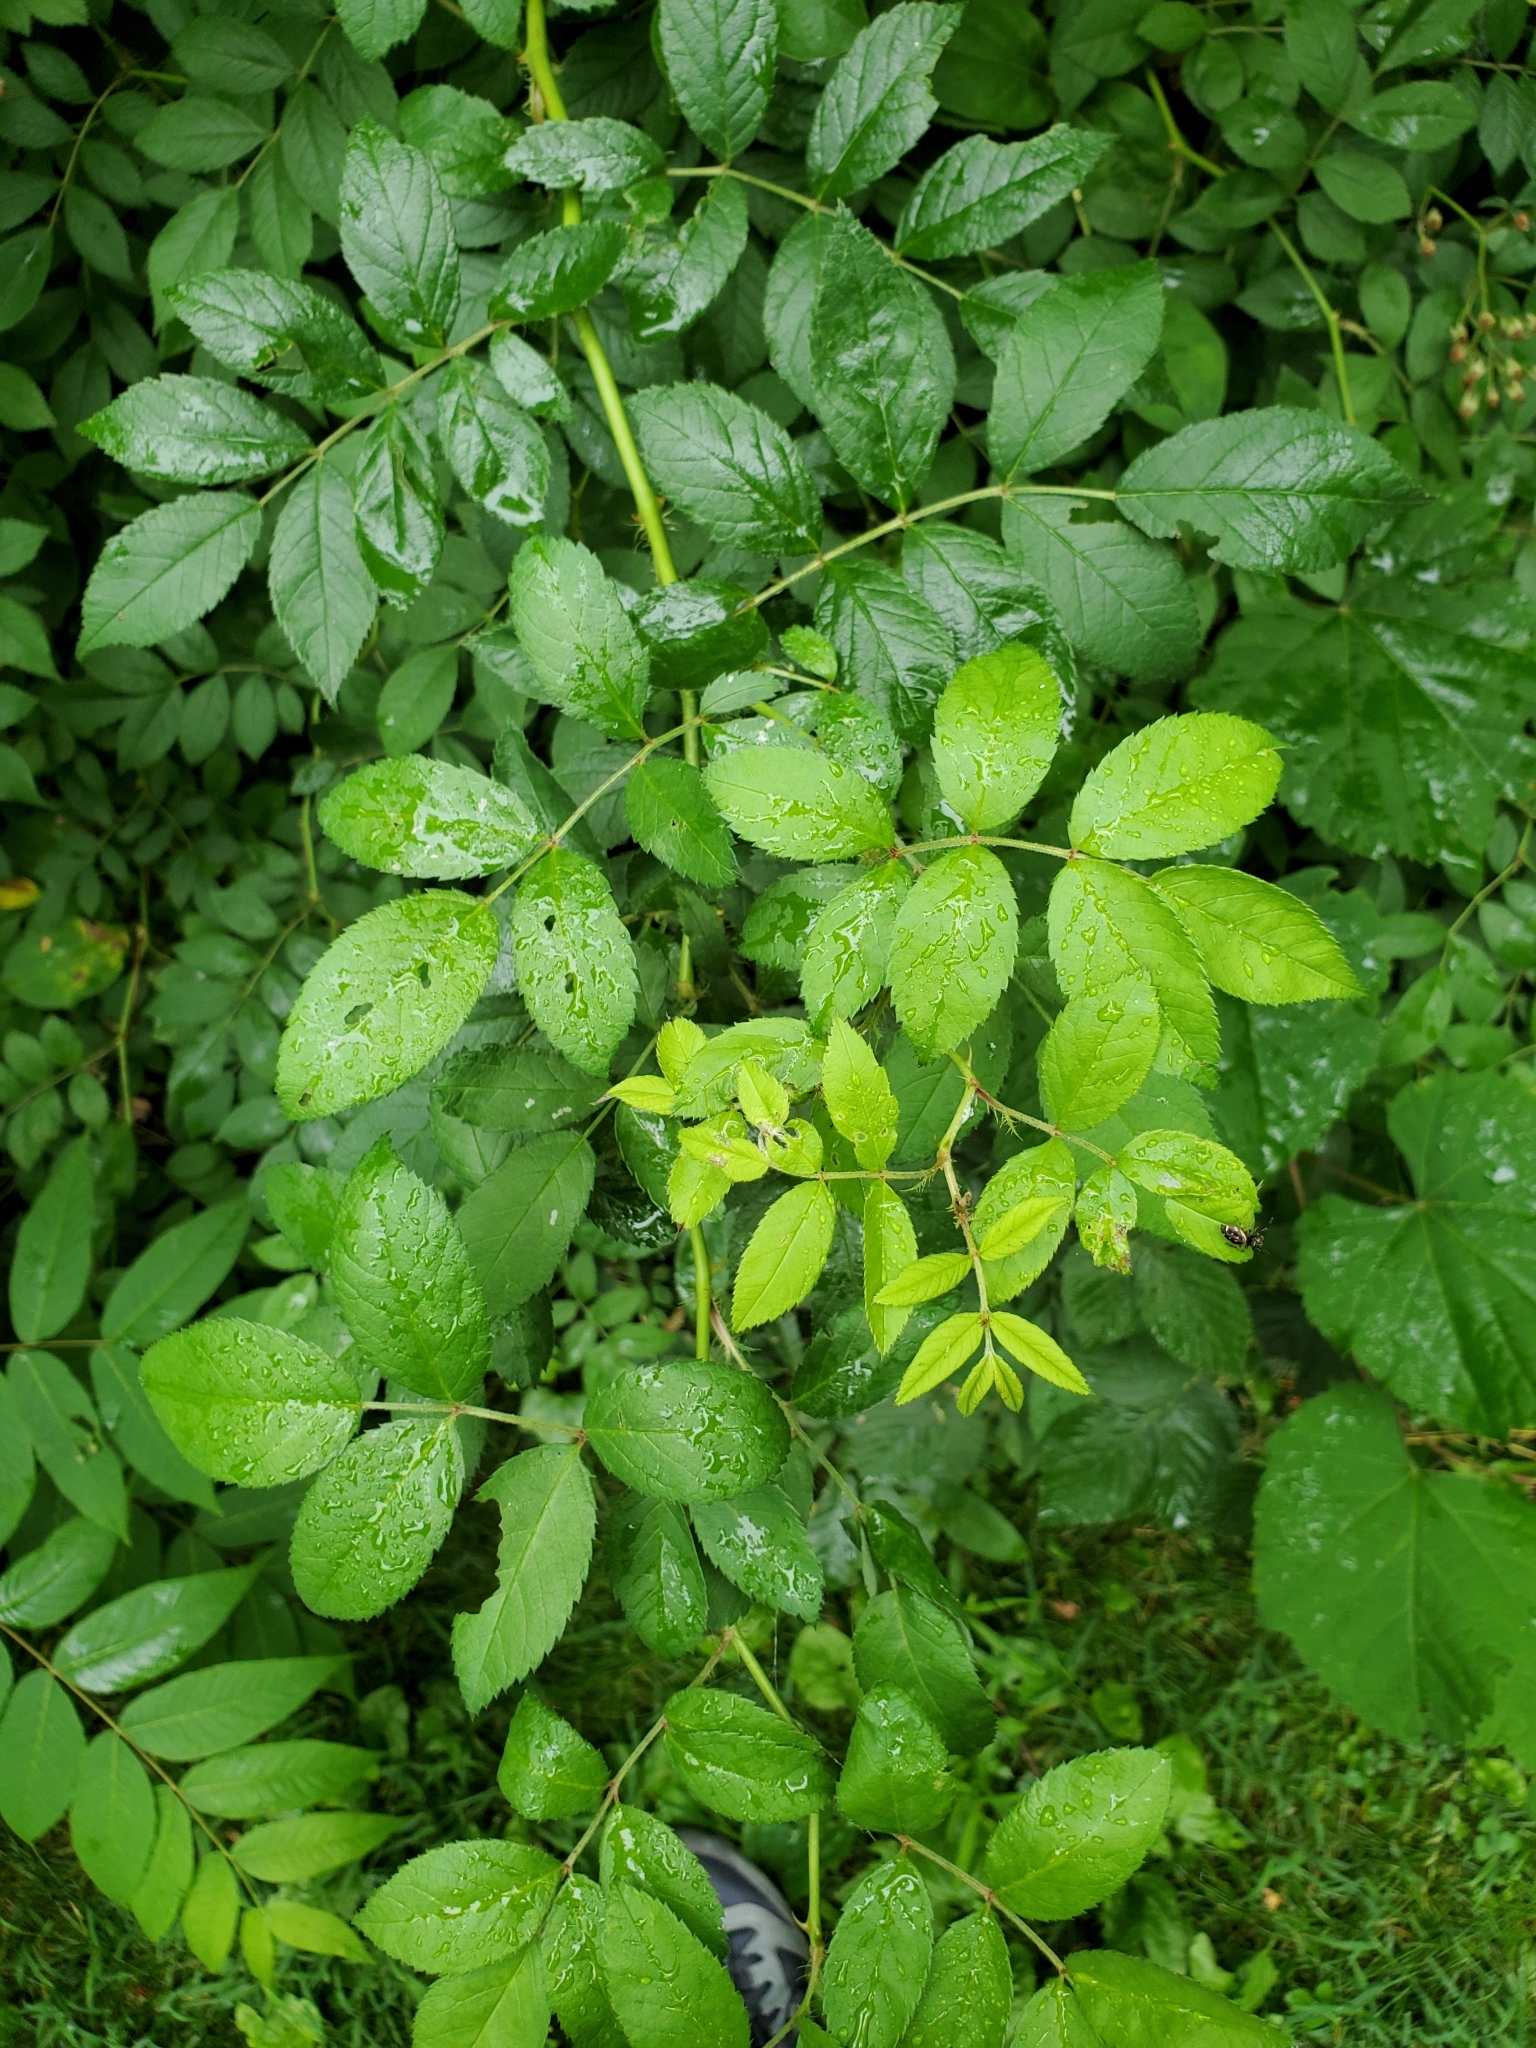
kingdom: Plantae
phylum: Tracheophyta
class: Magnoliopsida
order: Rosales
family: Rosaceae
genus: Rosa
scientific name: Rosa multiflora
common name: Multiflora rose
